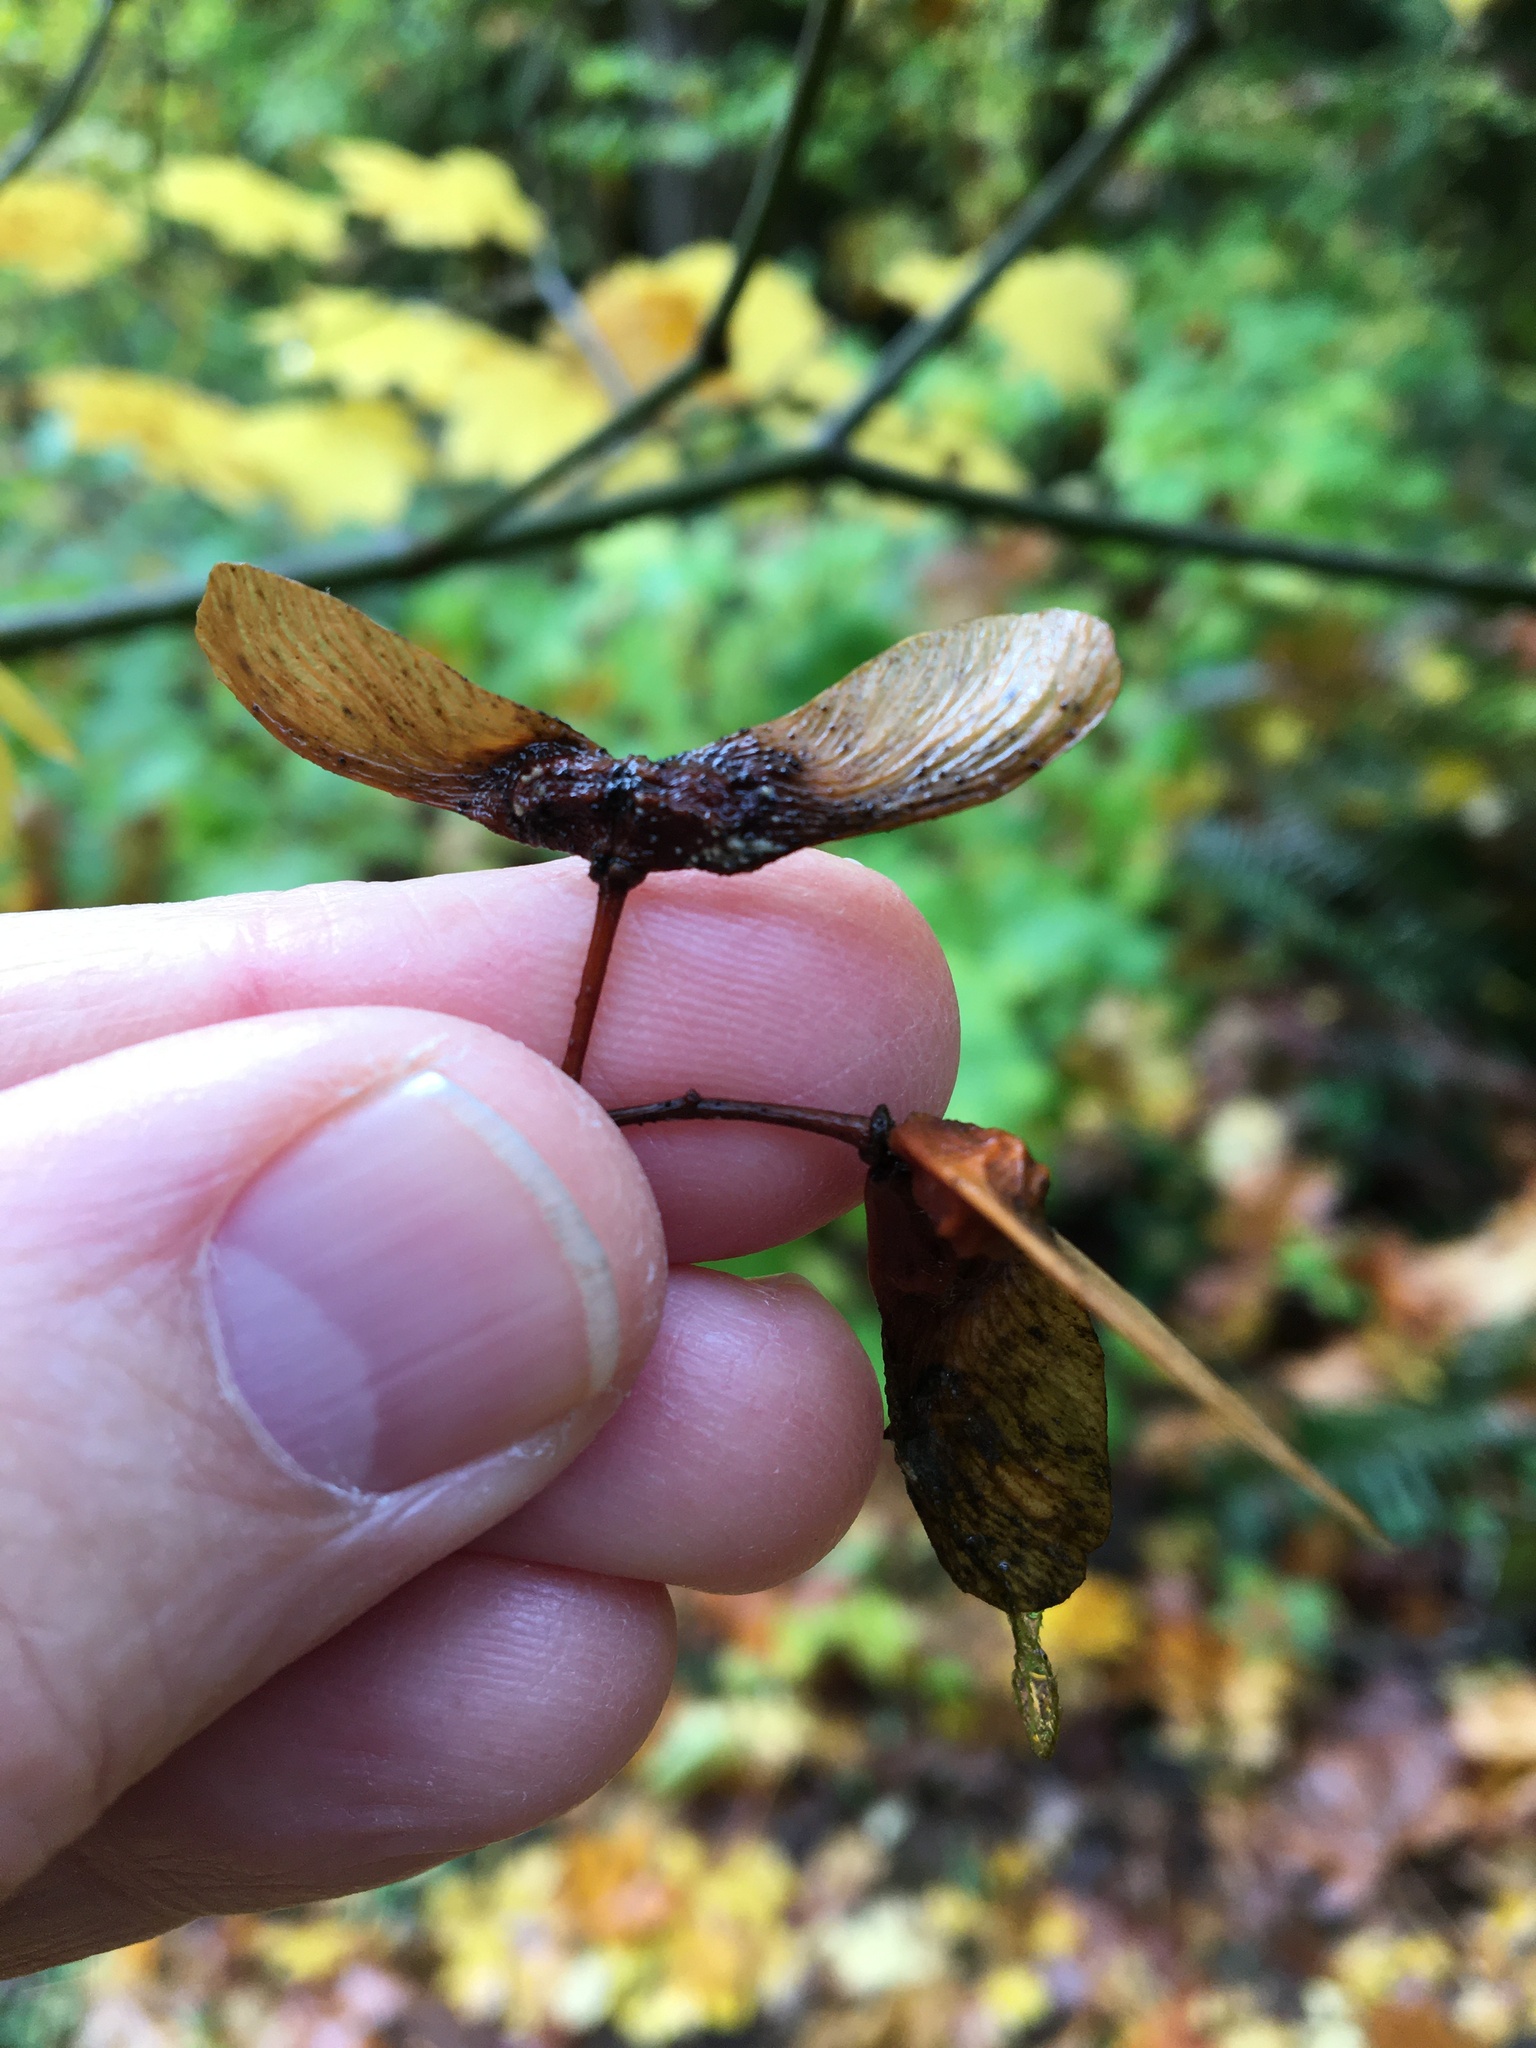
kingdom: Plantae
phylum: Tracheophyta
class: Magnoliopsida
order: Sapindales
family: Sapindaceae
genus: Acer
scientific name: Acer circinatum
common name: Vine maple
